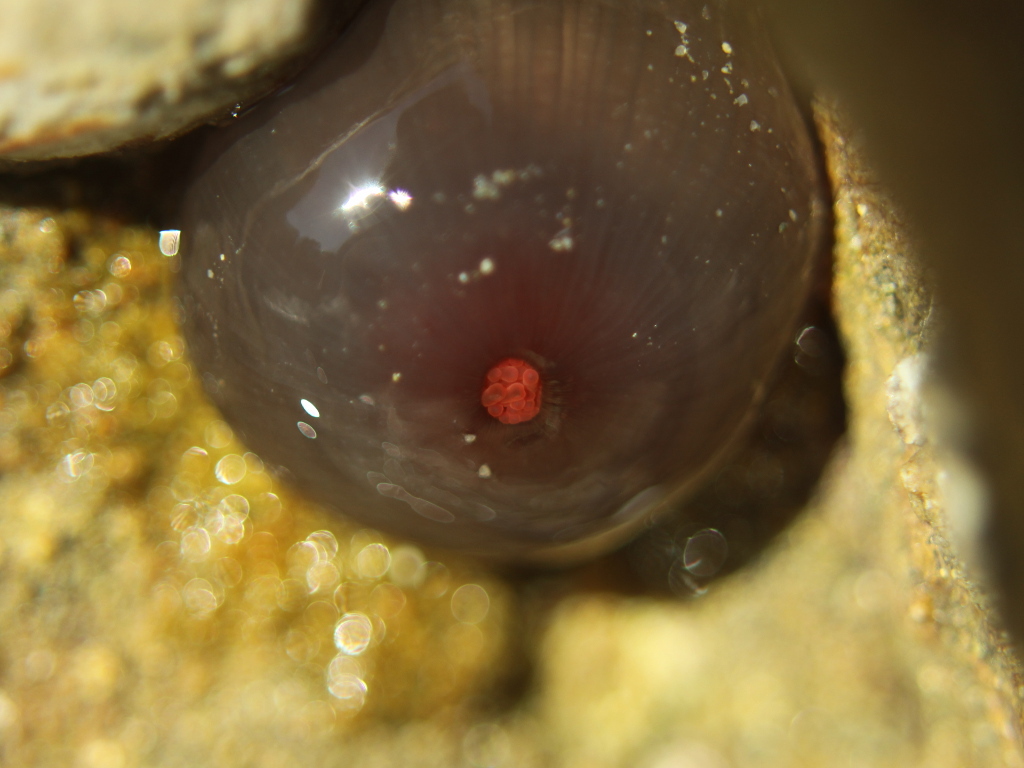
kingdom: Animalia
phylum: Cnidaria
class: Anthozoa
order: Actiniaria
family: Actiniidae
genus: Actinia
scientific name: Actinia tenebrosa
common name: Waratah anemone
